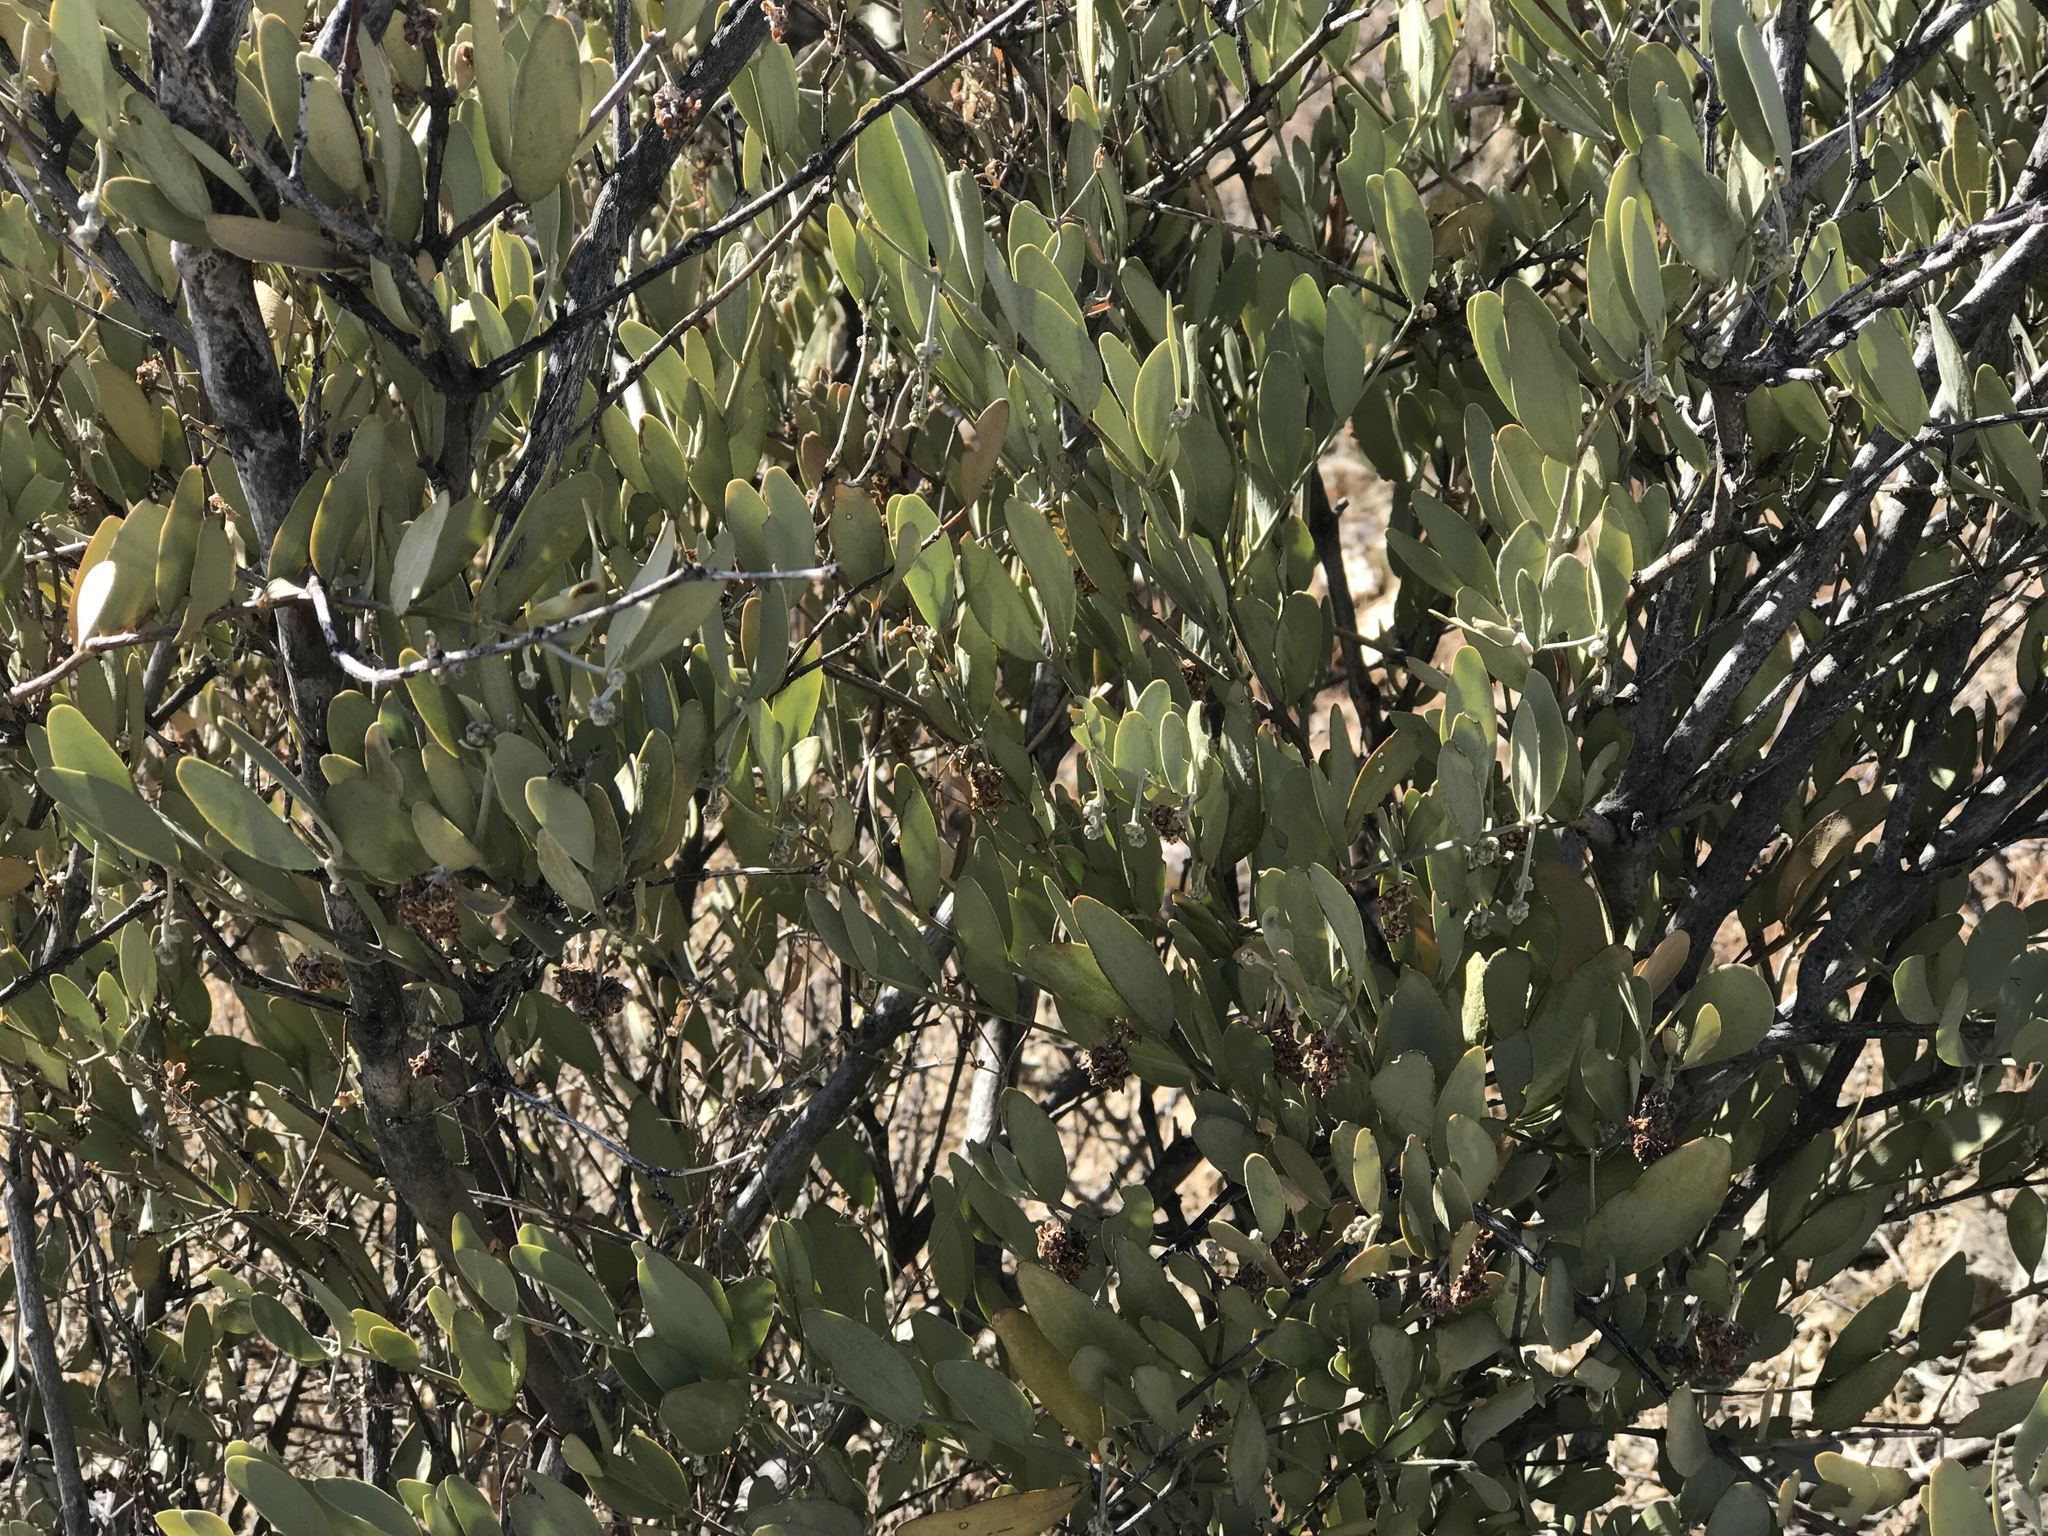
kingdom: Plantae
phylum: Tracheophyta
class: Magnoliopsida
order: Caryophyllales
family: Simmondsiaceae
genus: Simmondsia
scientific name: Simmondsia chinensis
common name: Jojoba
